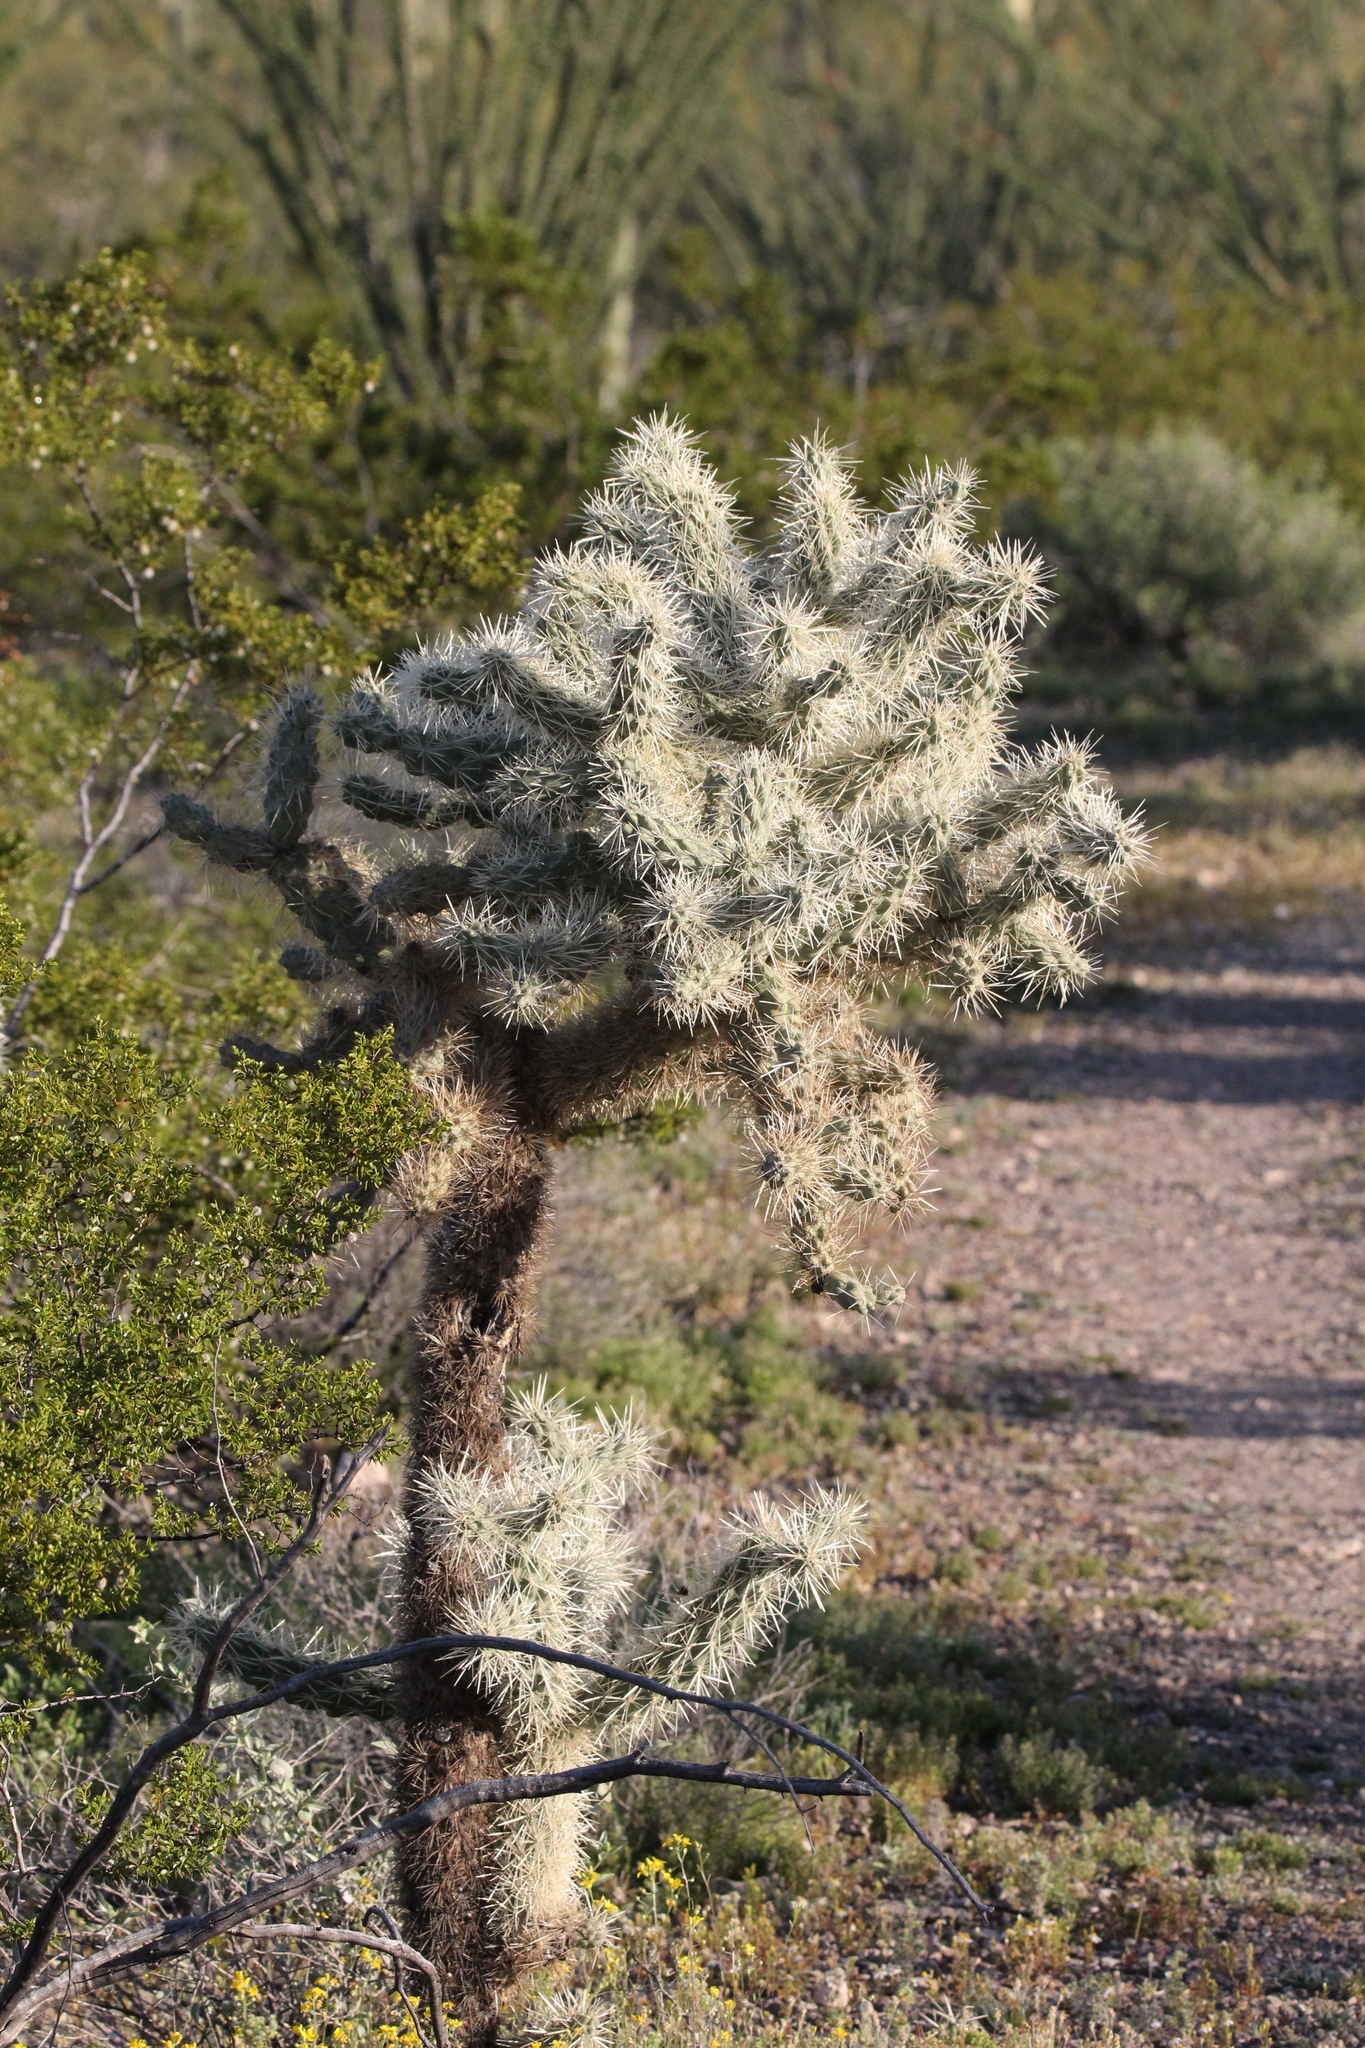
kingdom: Plantae
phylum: Tracheophyta
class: Magnoliopsida
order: Caryophyllales
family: Cactaceae
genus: Cylindropuntia
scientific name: Cylindropuntia fulgida
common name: Jumping cholla
